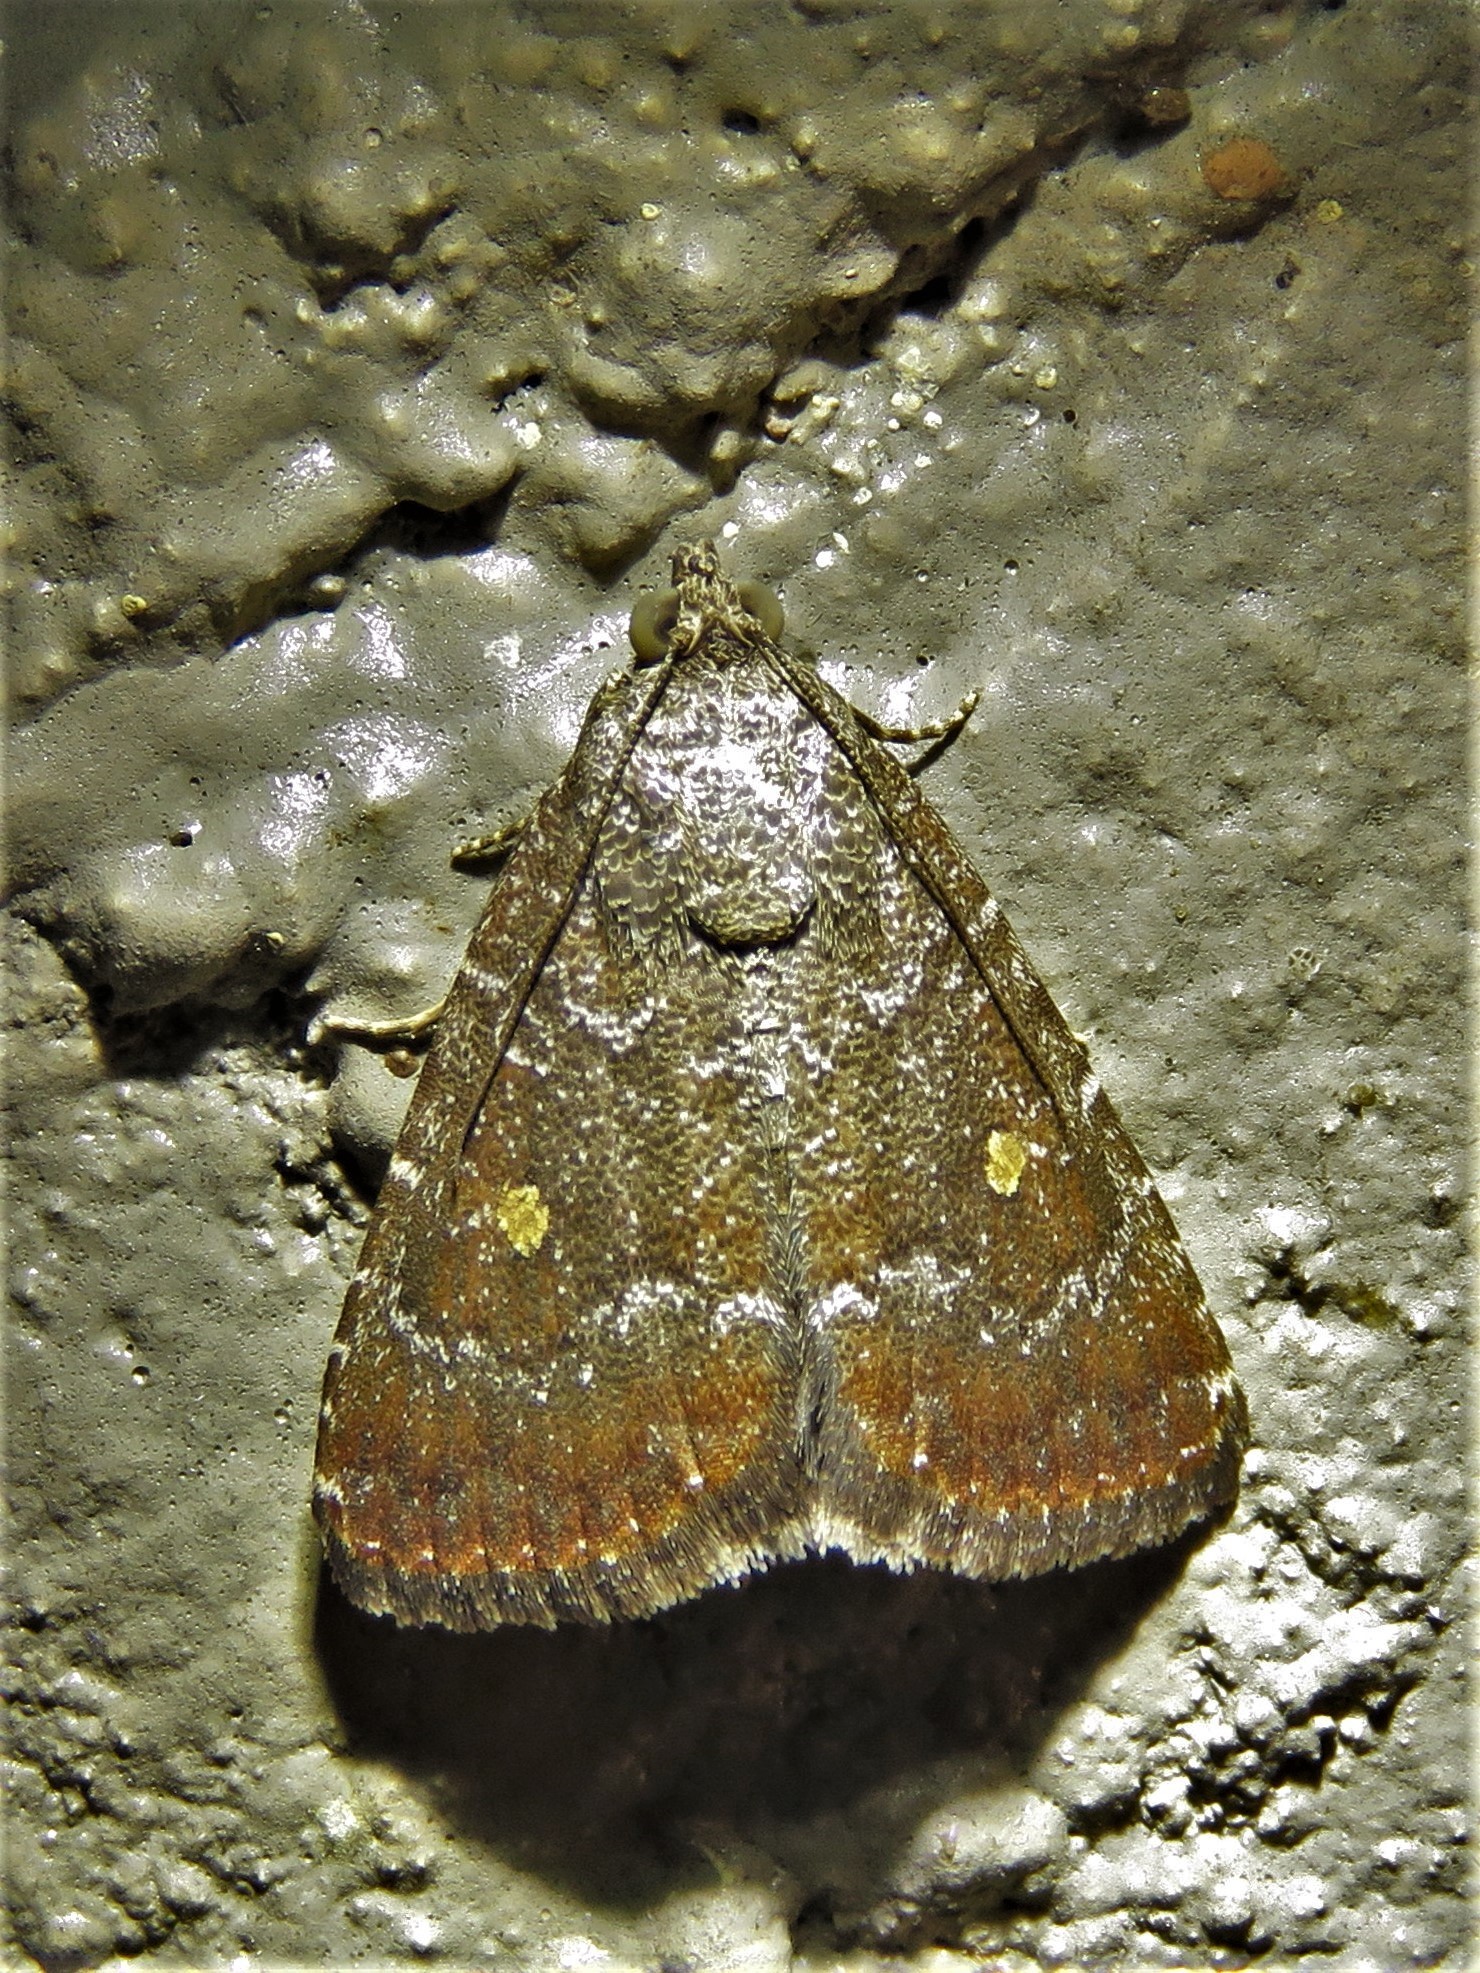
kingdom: Animalia
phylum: Arthropoda
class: Insecta
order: Lepidoptera
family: Noctuidae
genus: Amyna
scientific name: Amyna stricta
